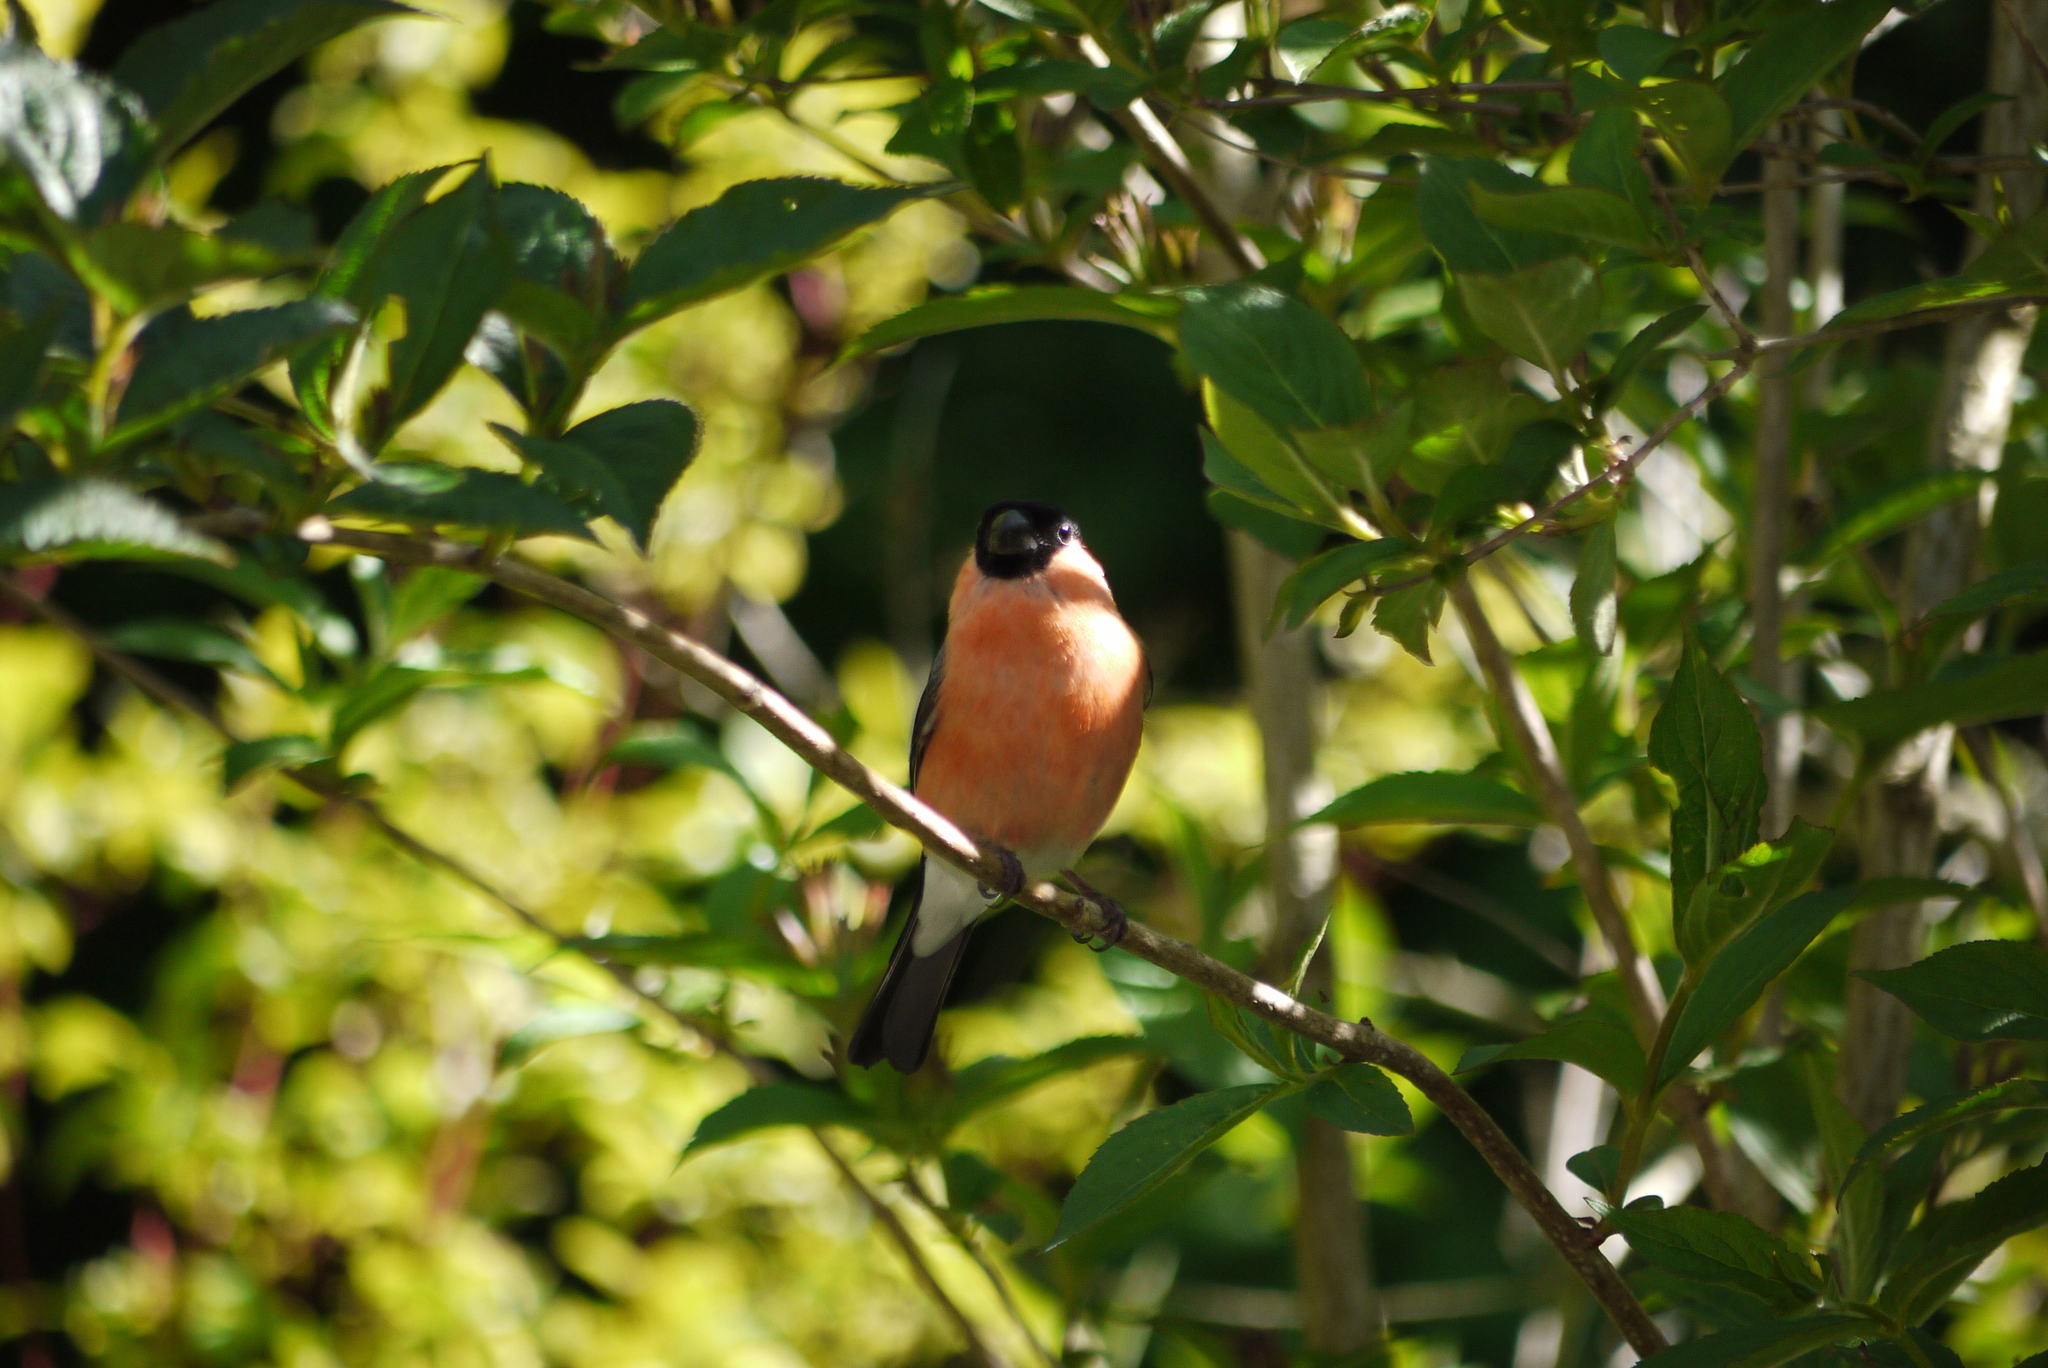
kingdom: Animalia
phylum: Chordata
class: Aves
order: Passeriformes
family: Fringillidae
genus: Pyrrhula
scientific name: Pyrrhula pyrrhula
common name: Eurasian bullfinch
